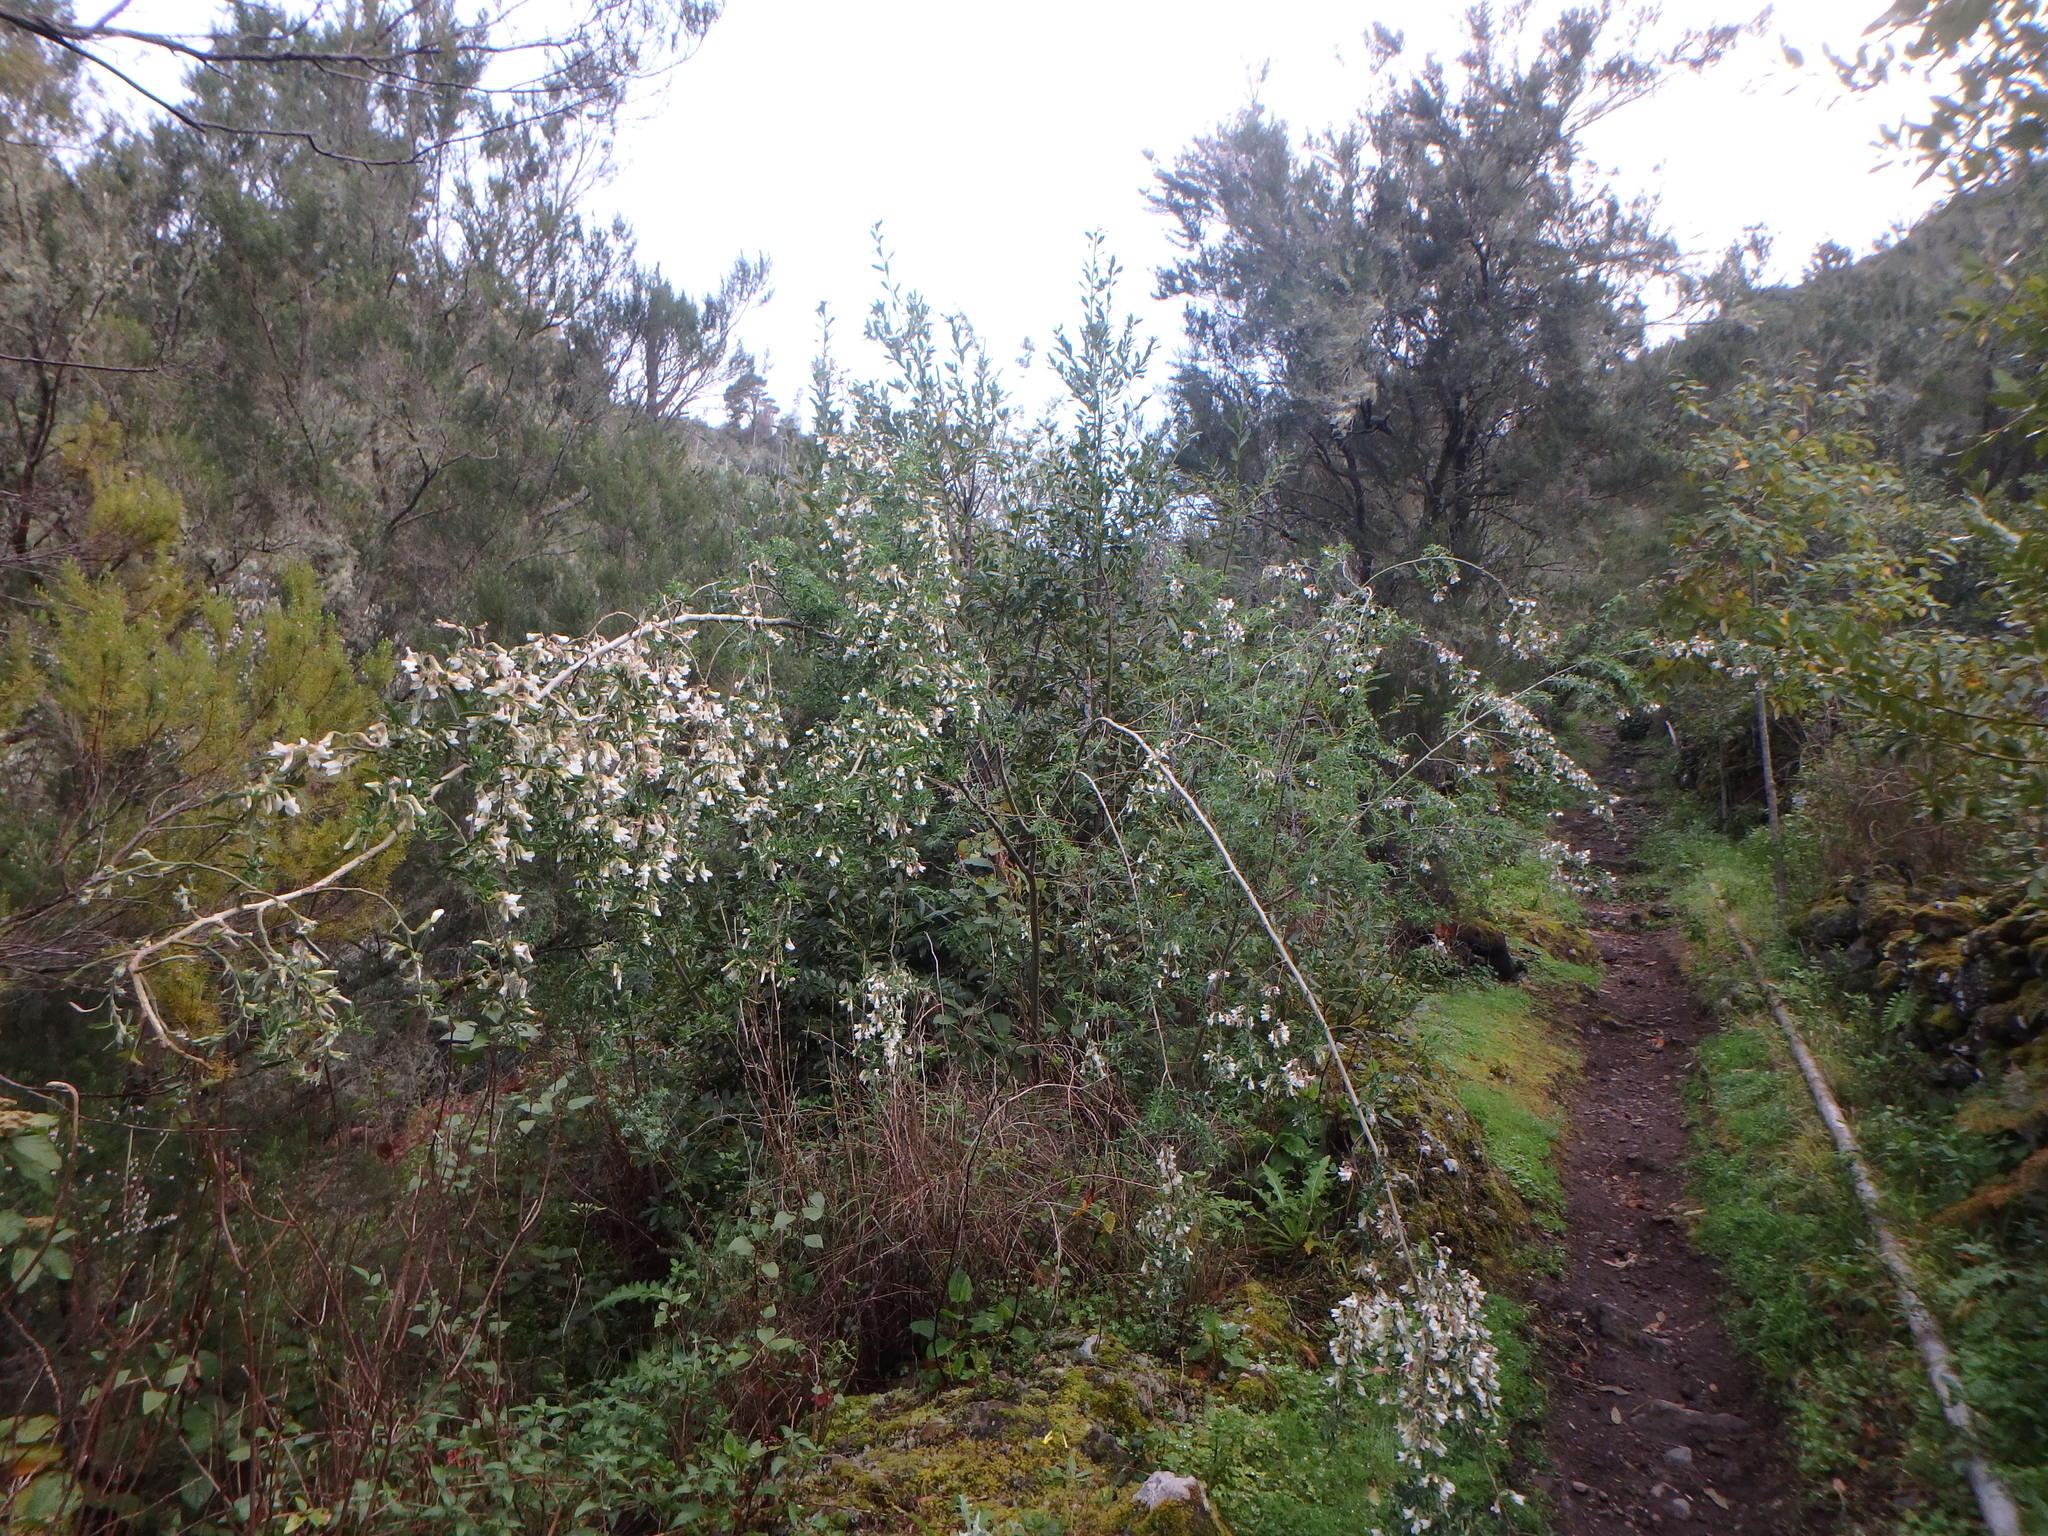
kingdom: Plantae
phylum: Tracheophyta
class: Magnoliopsida
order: Fabales
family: Fabaceae
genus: Chamaecytisus
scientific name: Chamaecytisus prolifer
